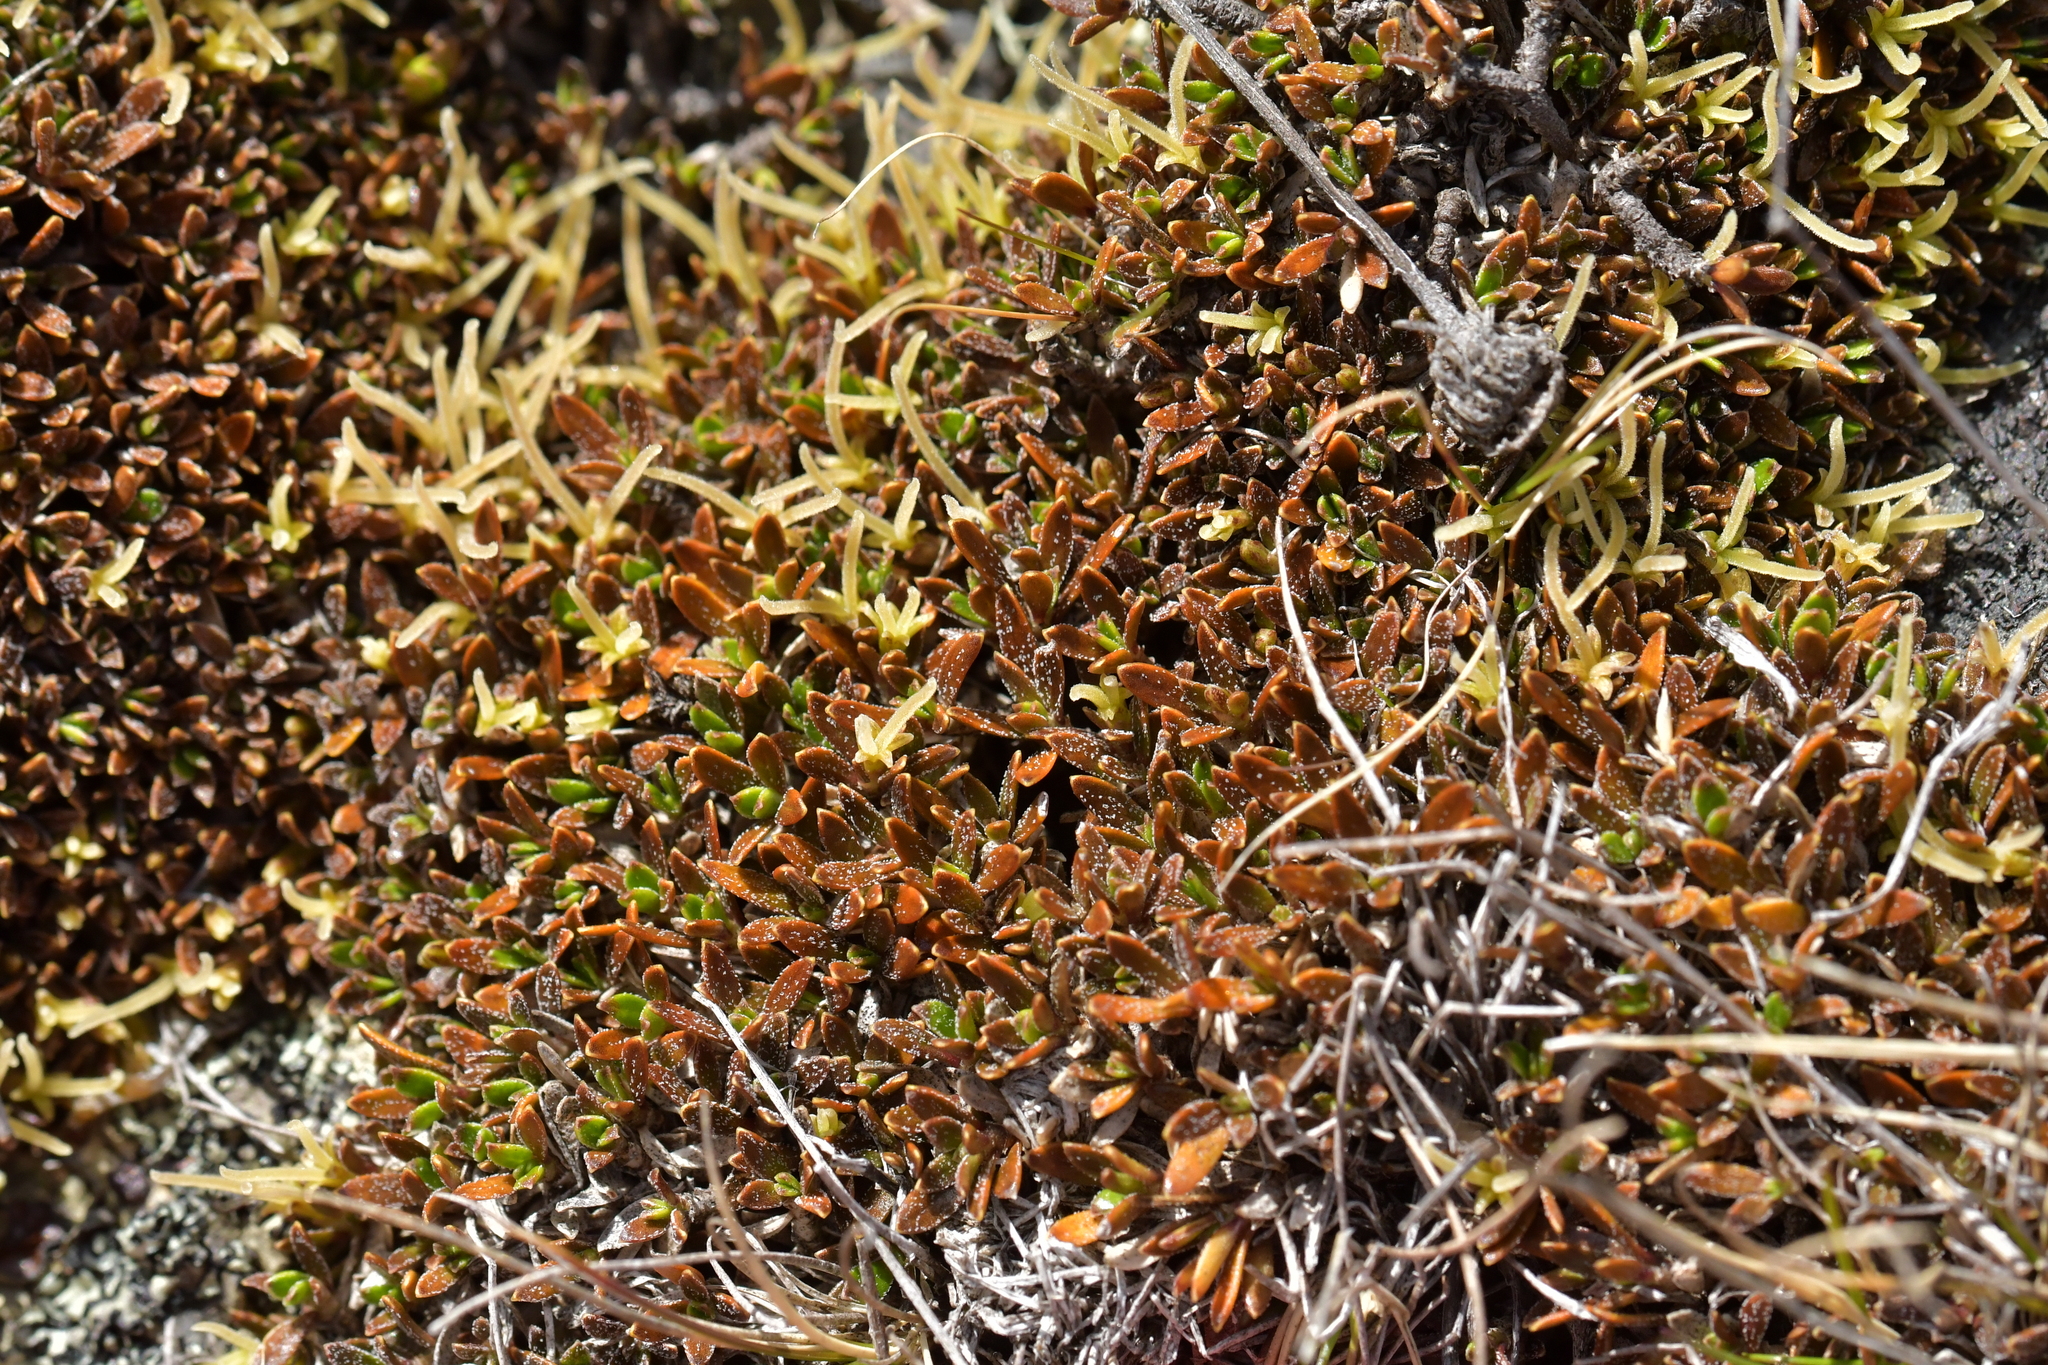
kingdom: Plantae
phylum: Tracheophyta
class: Magnoliopsida
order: Gentianales
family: Rubiaceae
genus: Coprosma
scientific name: Coprosma petriei
